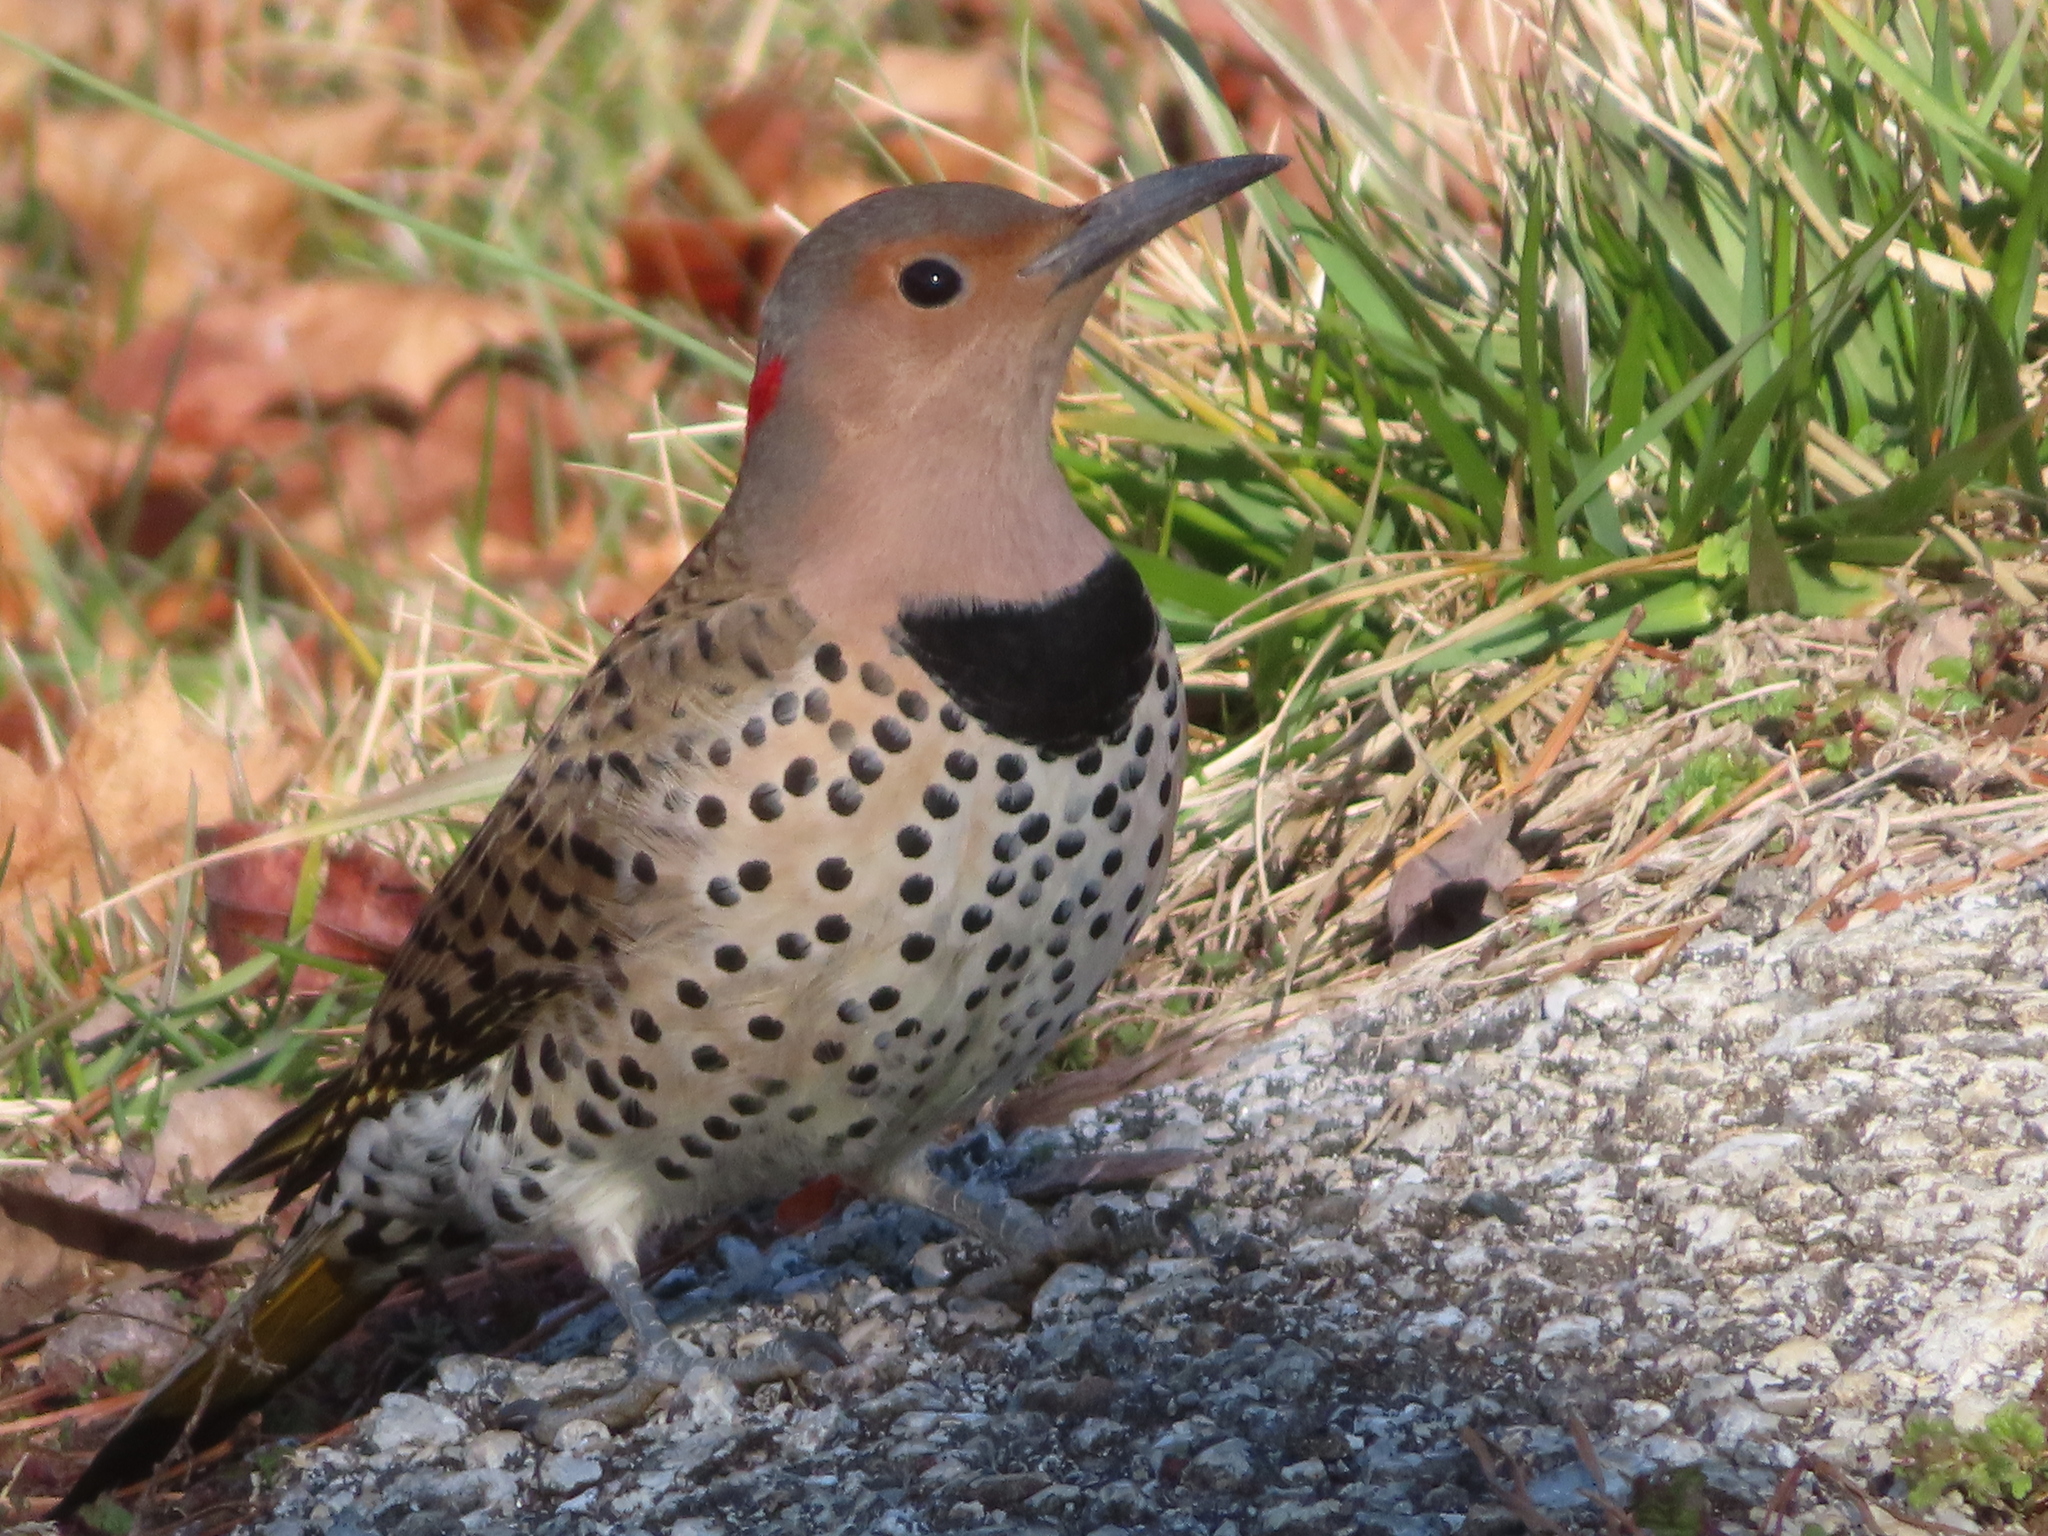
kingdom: Animalia
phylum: Chordata
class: Aves
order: Piciformes
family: Picidae
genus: Colaptes
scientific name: Colaptes auratus
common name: Northern flicker
